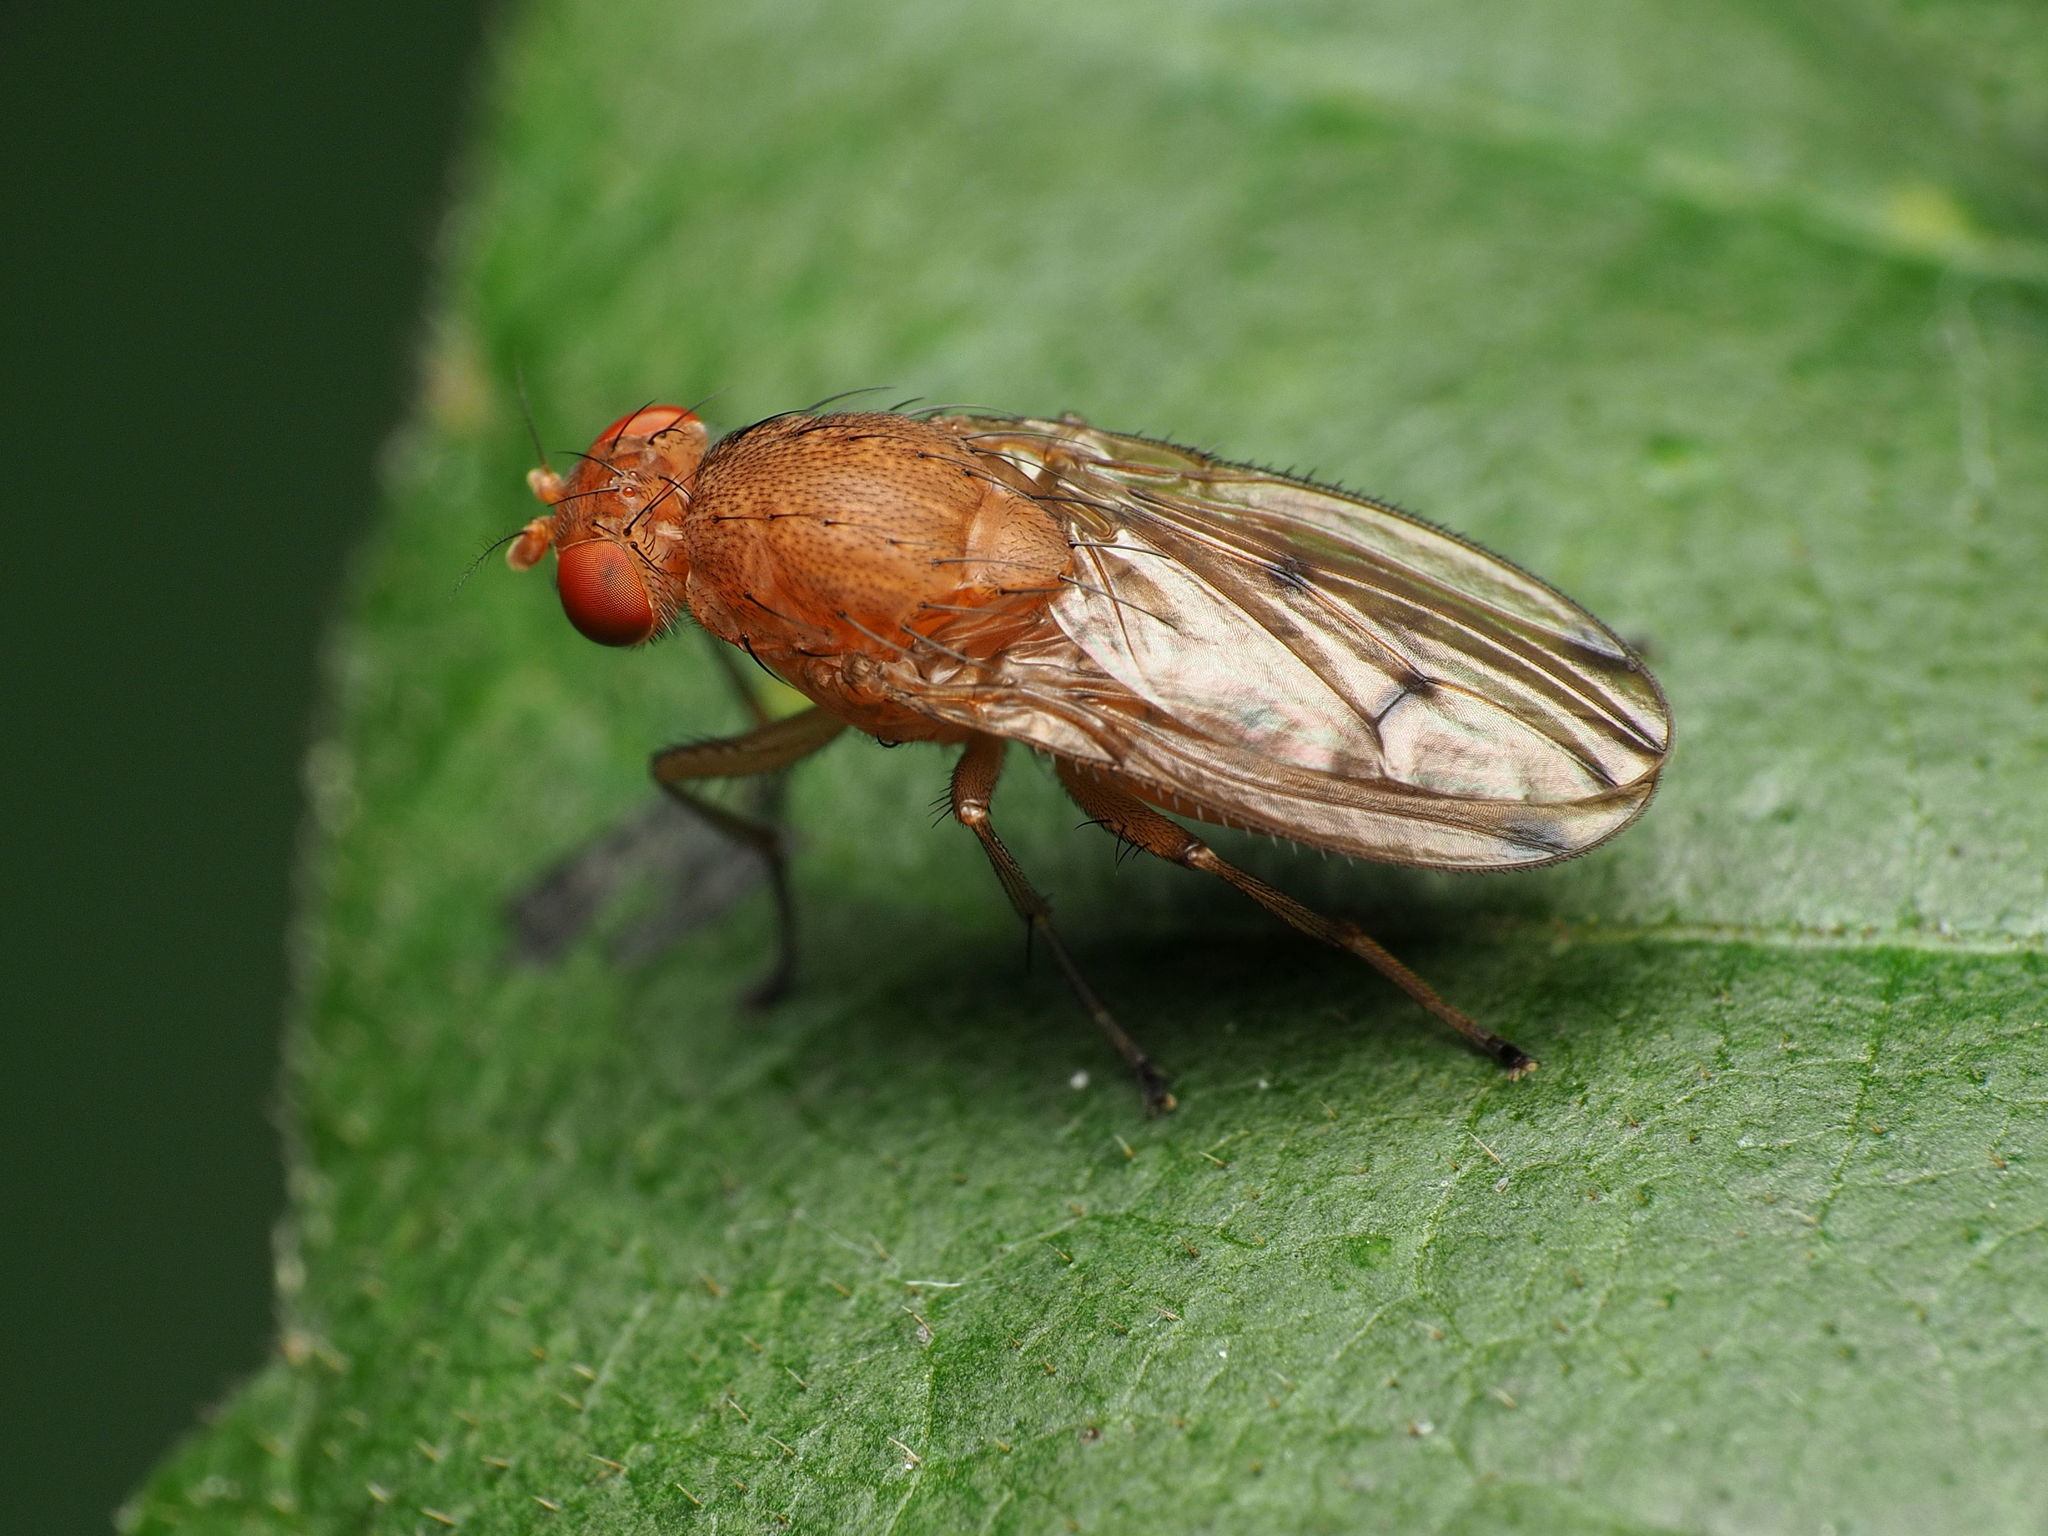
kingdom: Animalia
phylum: Arthropoda
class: Insecta
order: Diptera
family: Heleomyzidae
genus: Suillia
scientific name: Suillia quinquepunctata
